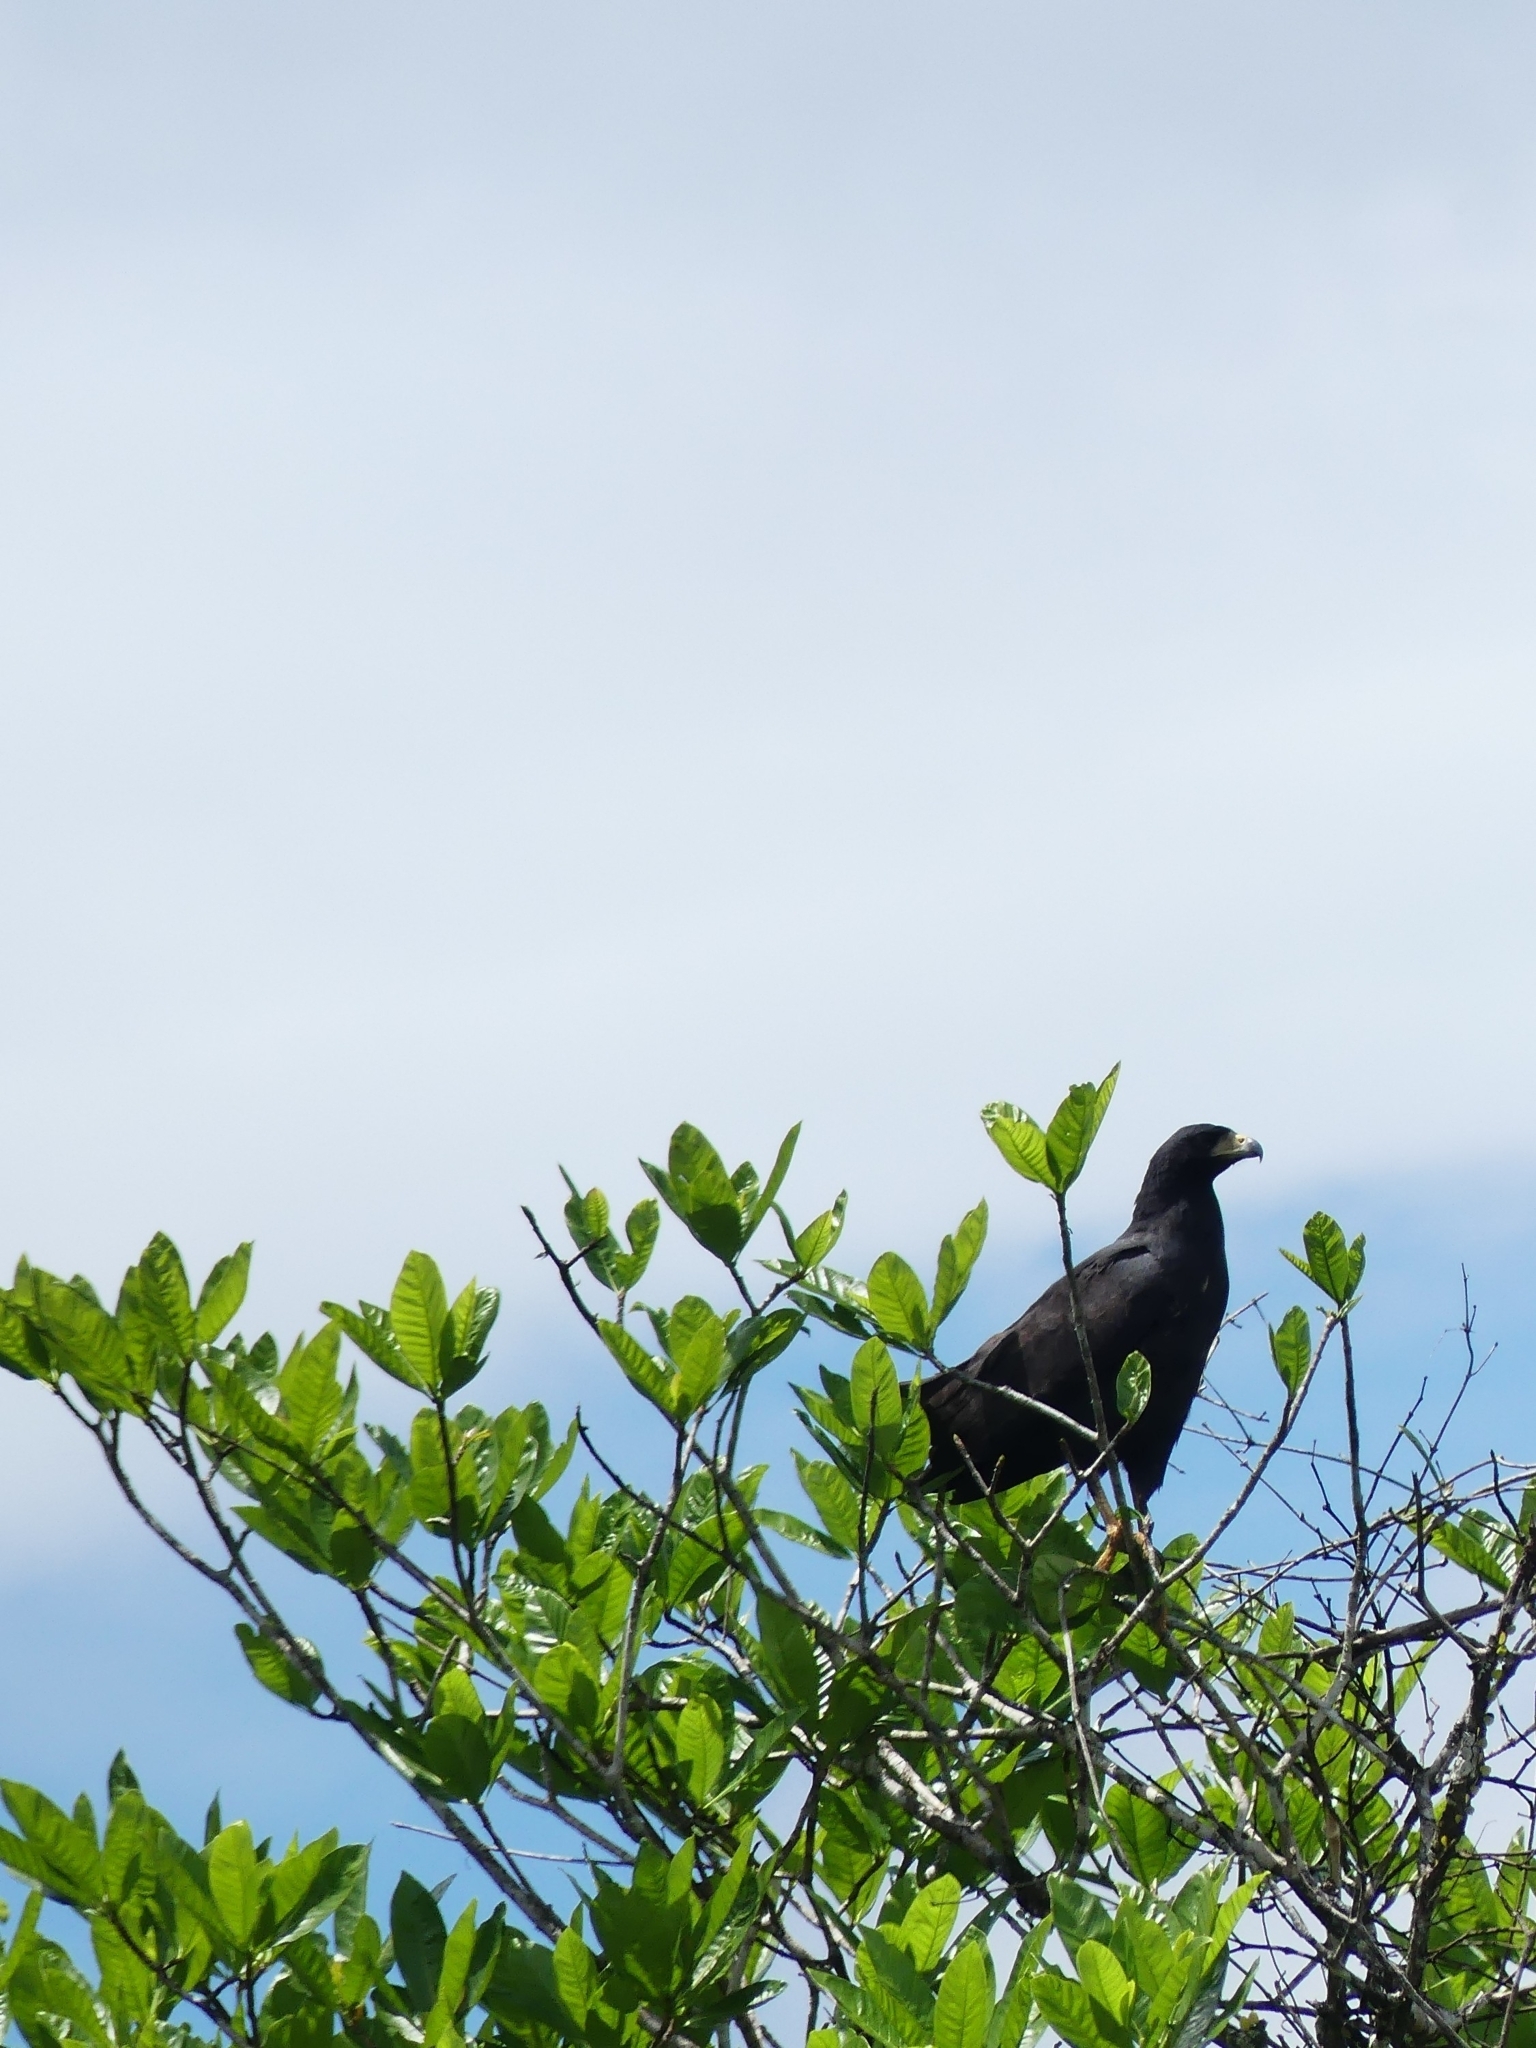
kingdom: Animalia
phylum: Chordata
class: Aves
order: Accipitriformes
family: Accipitridae
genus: Buteogallus
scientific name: Buteogallus urubitinga
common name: Great black hawk
